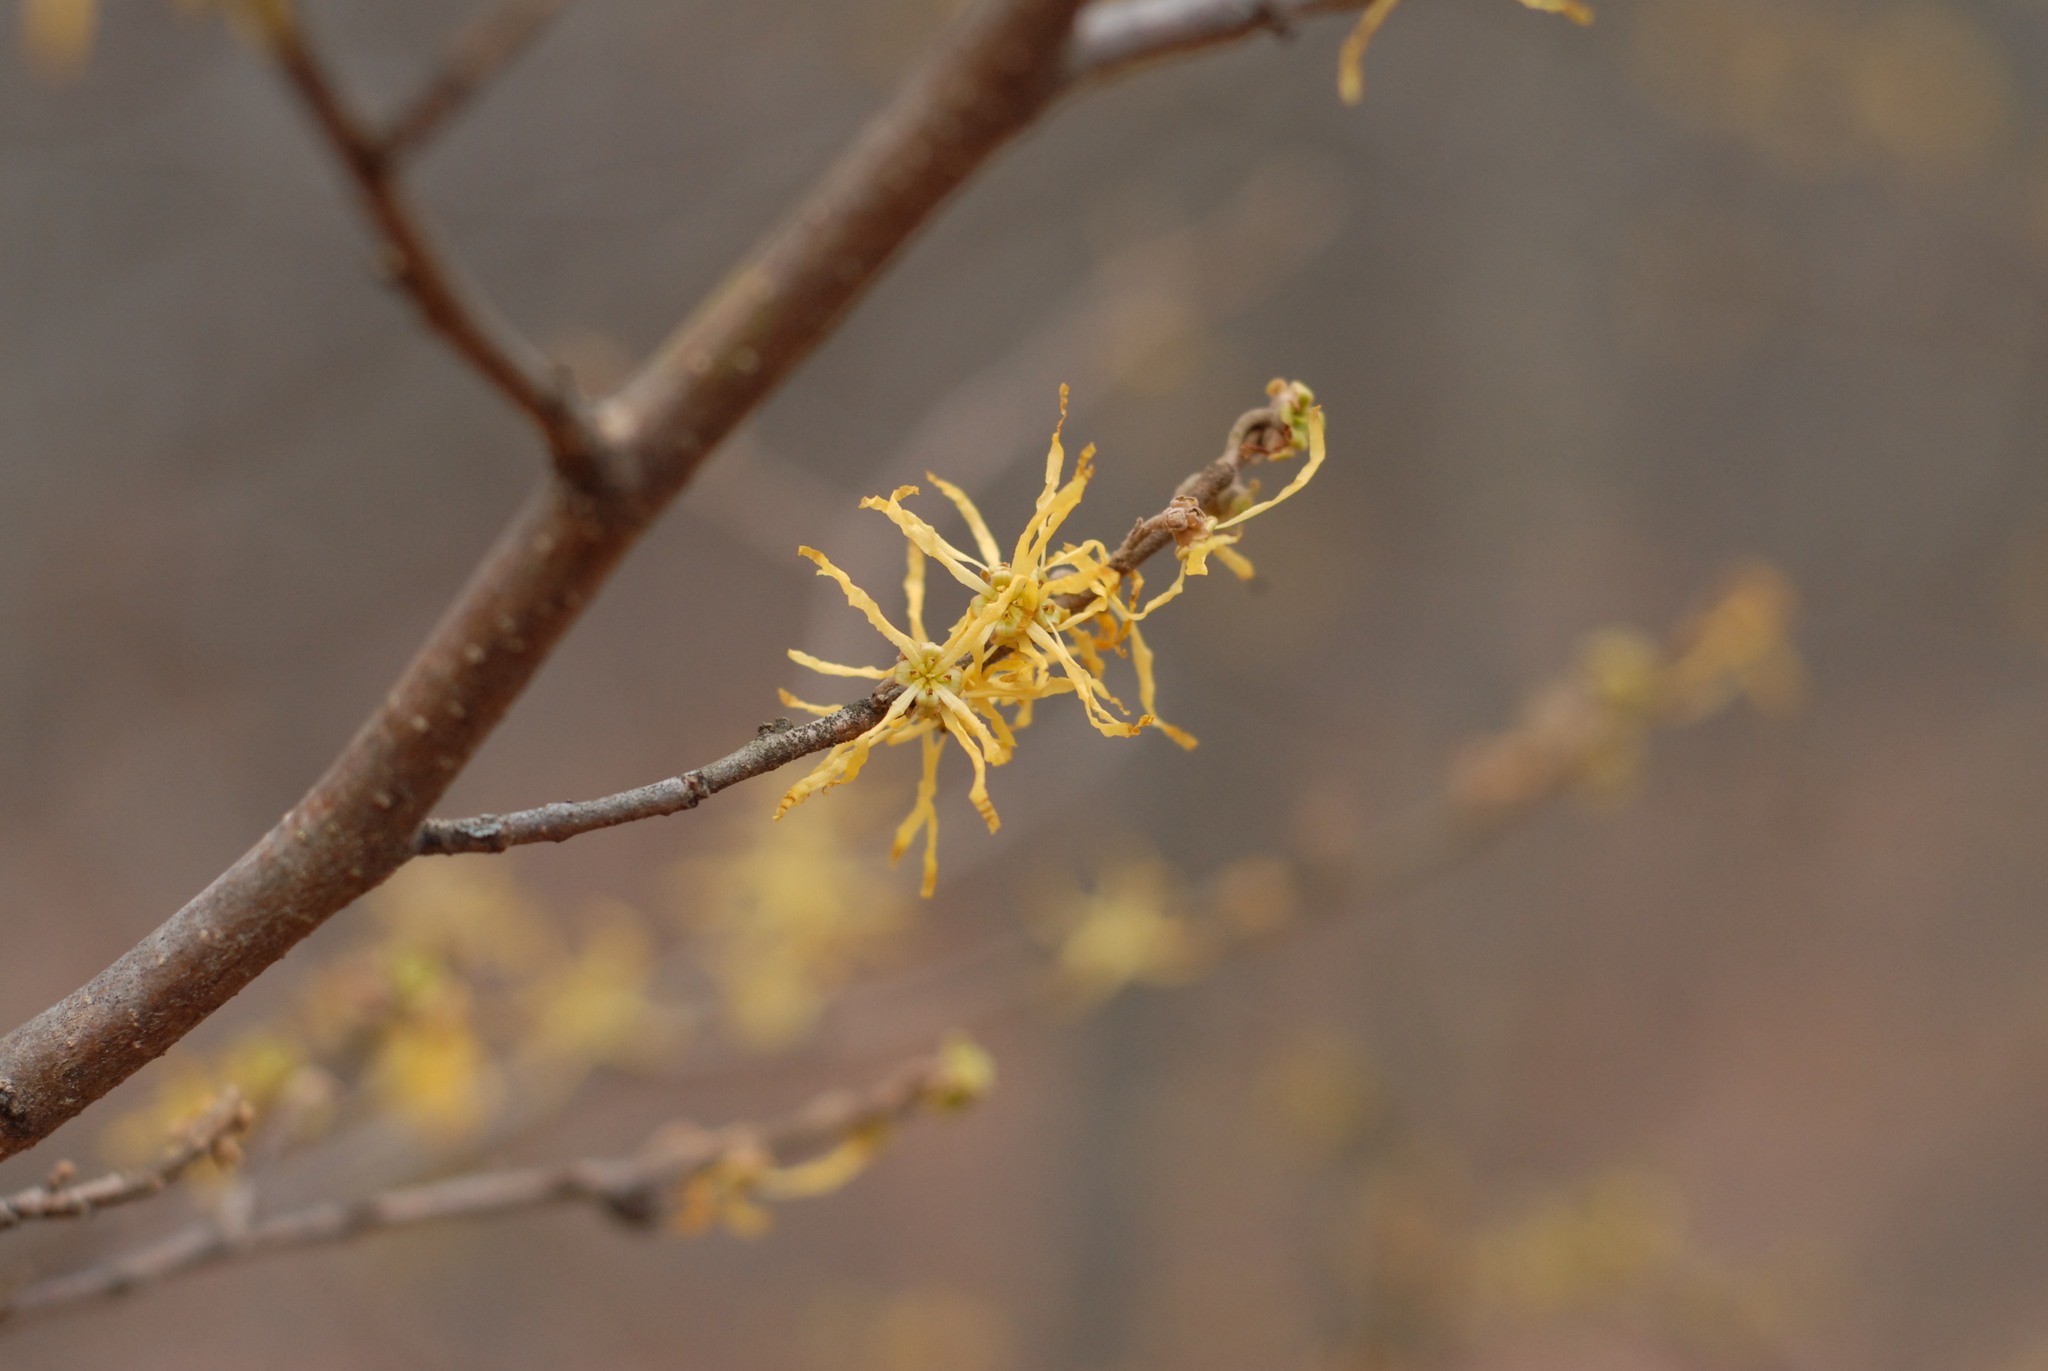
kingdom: Plantae
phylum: Tracheophyta
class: Magnoliopsida
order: Saxifragales
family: Hamamelidaceae
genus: Hamamelis
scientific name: Hamamelis virginiana
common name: Witch-hazel
